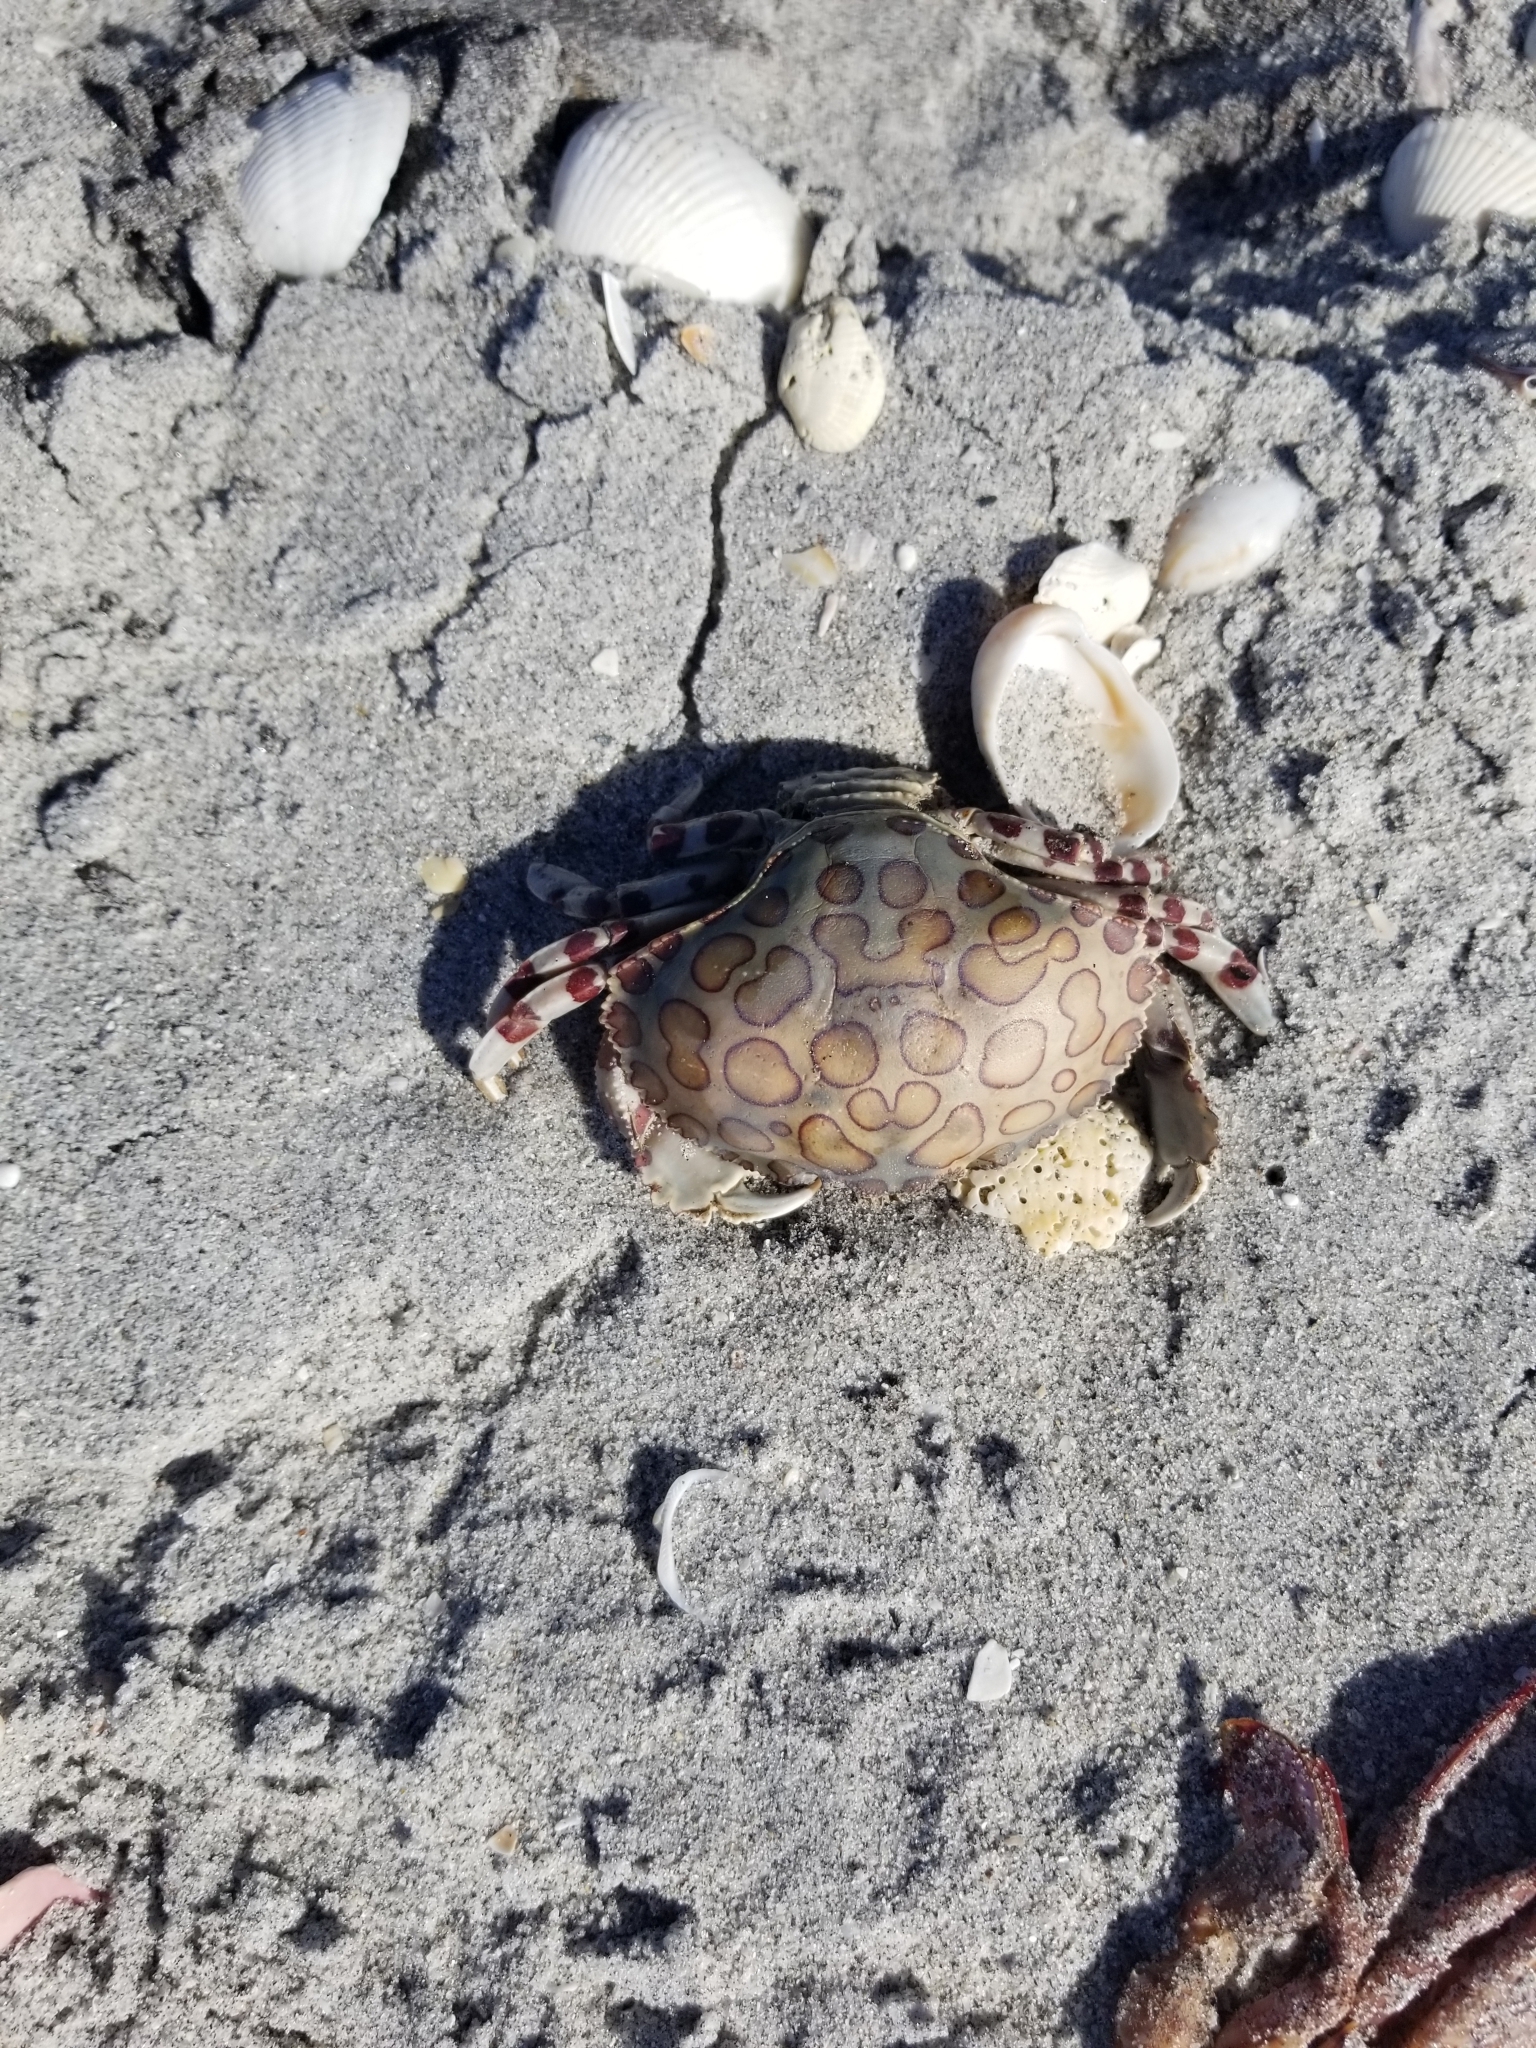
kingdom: Animalia
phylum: Arthropoda
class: Malacostraca
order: Decapoda
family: Aethridae
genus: Hepatus
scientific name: Hepatus epheliticus
